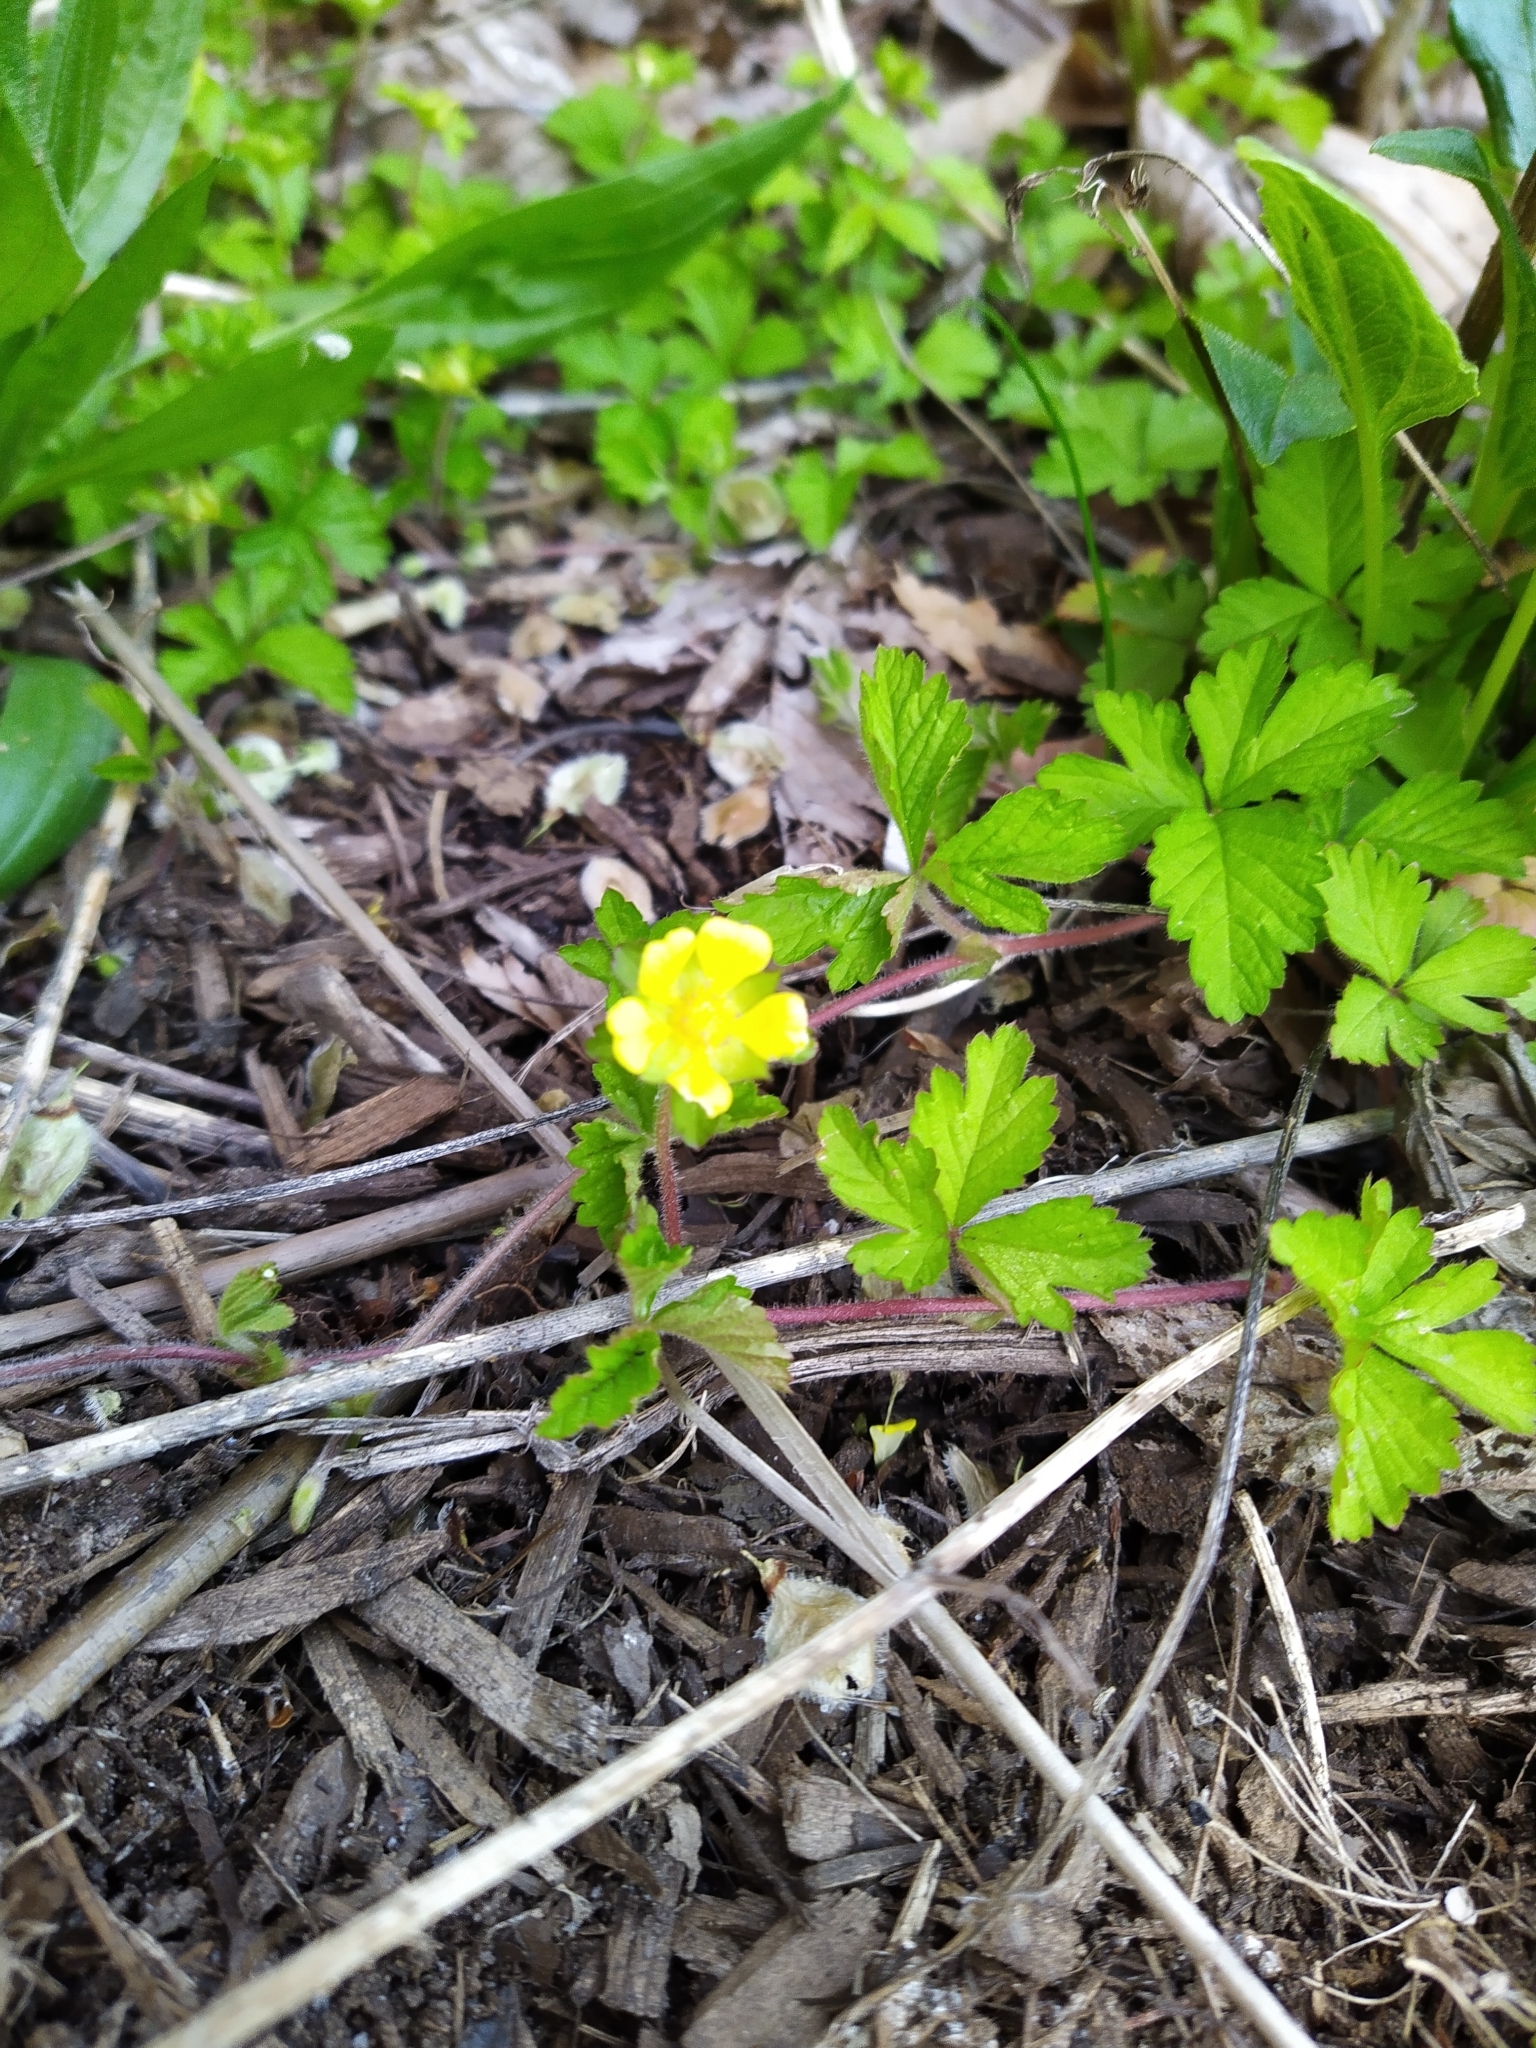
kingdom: Plantae
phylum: Tracheophyta
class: Magnoliopsida
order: Rosales
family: Rosaceae
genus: Potentilla
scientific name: Potentilla indica
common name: Yellow-flowered strawberry
